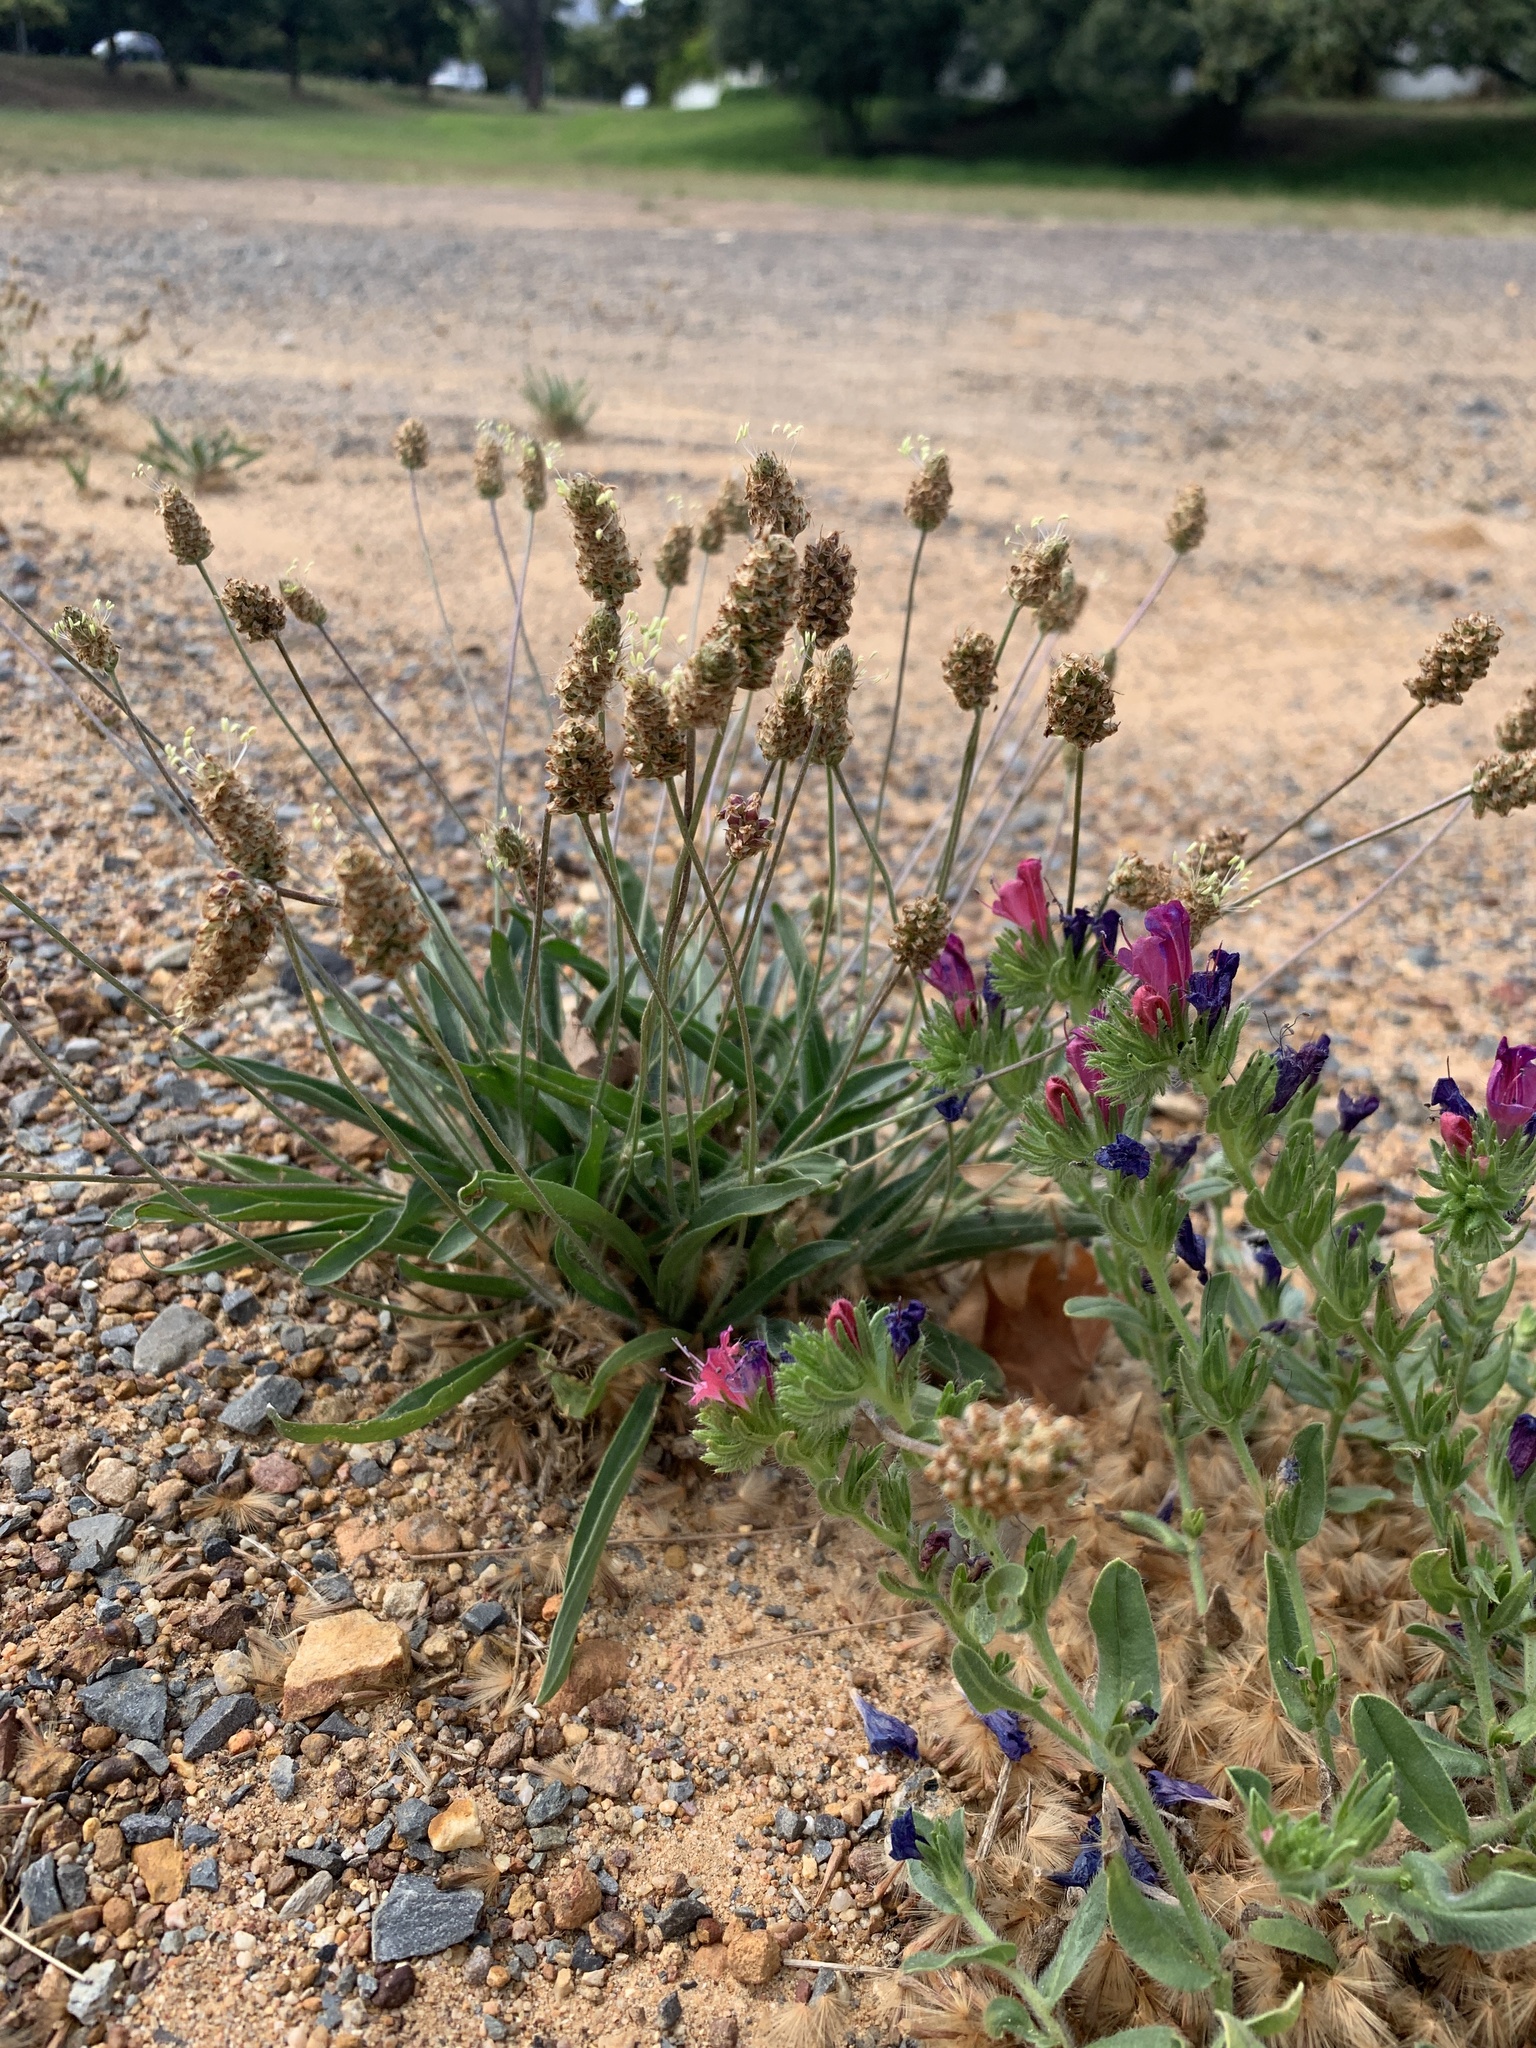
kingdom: Plantae
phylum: Tracheophyta
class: Magnoliopsida
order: Lamiales
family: Plantaginaceae
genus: Plantago
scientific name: Plantago lanceolata
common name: Ribwort plantain
